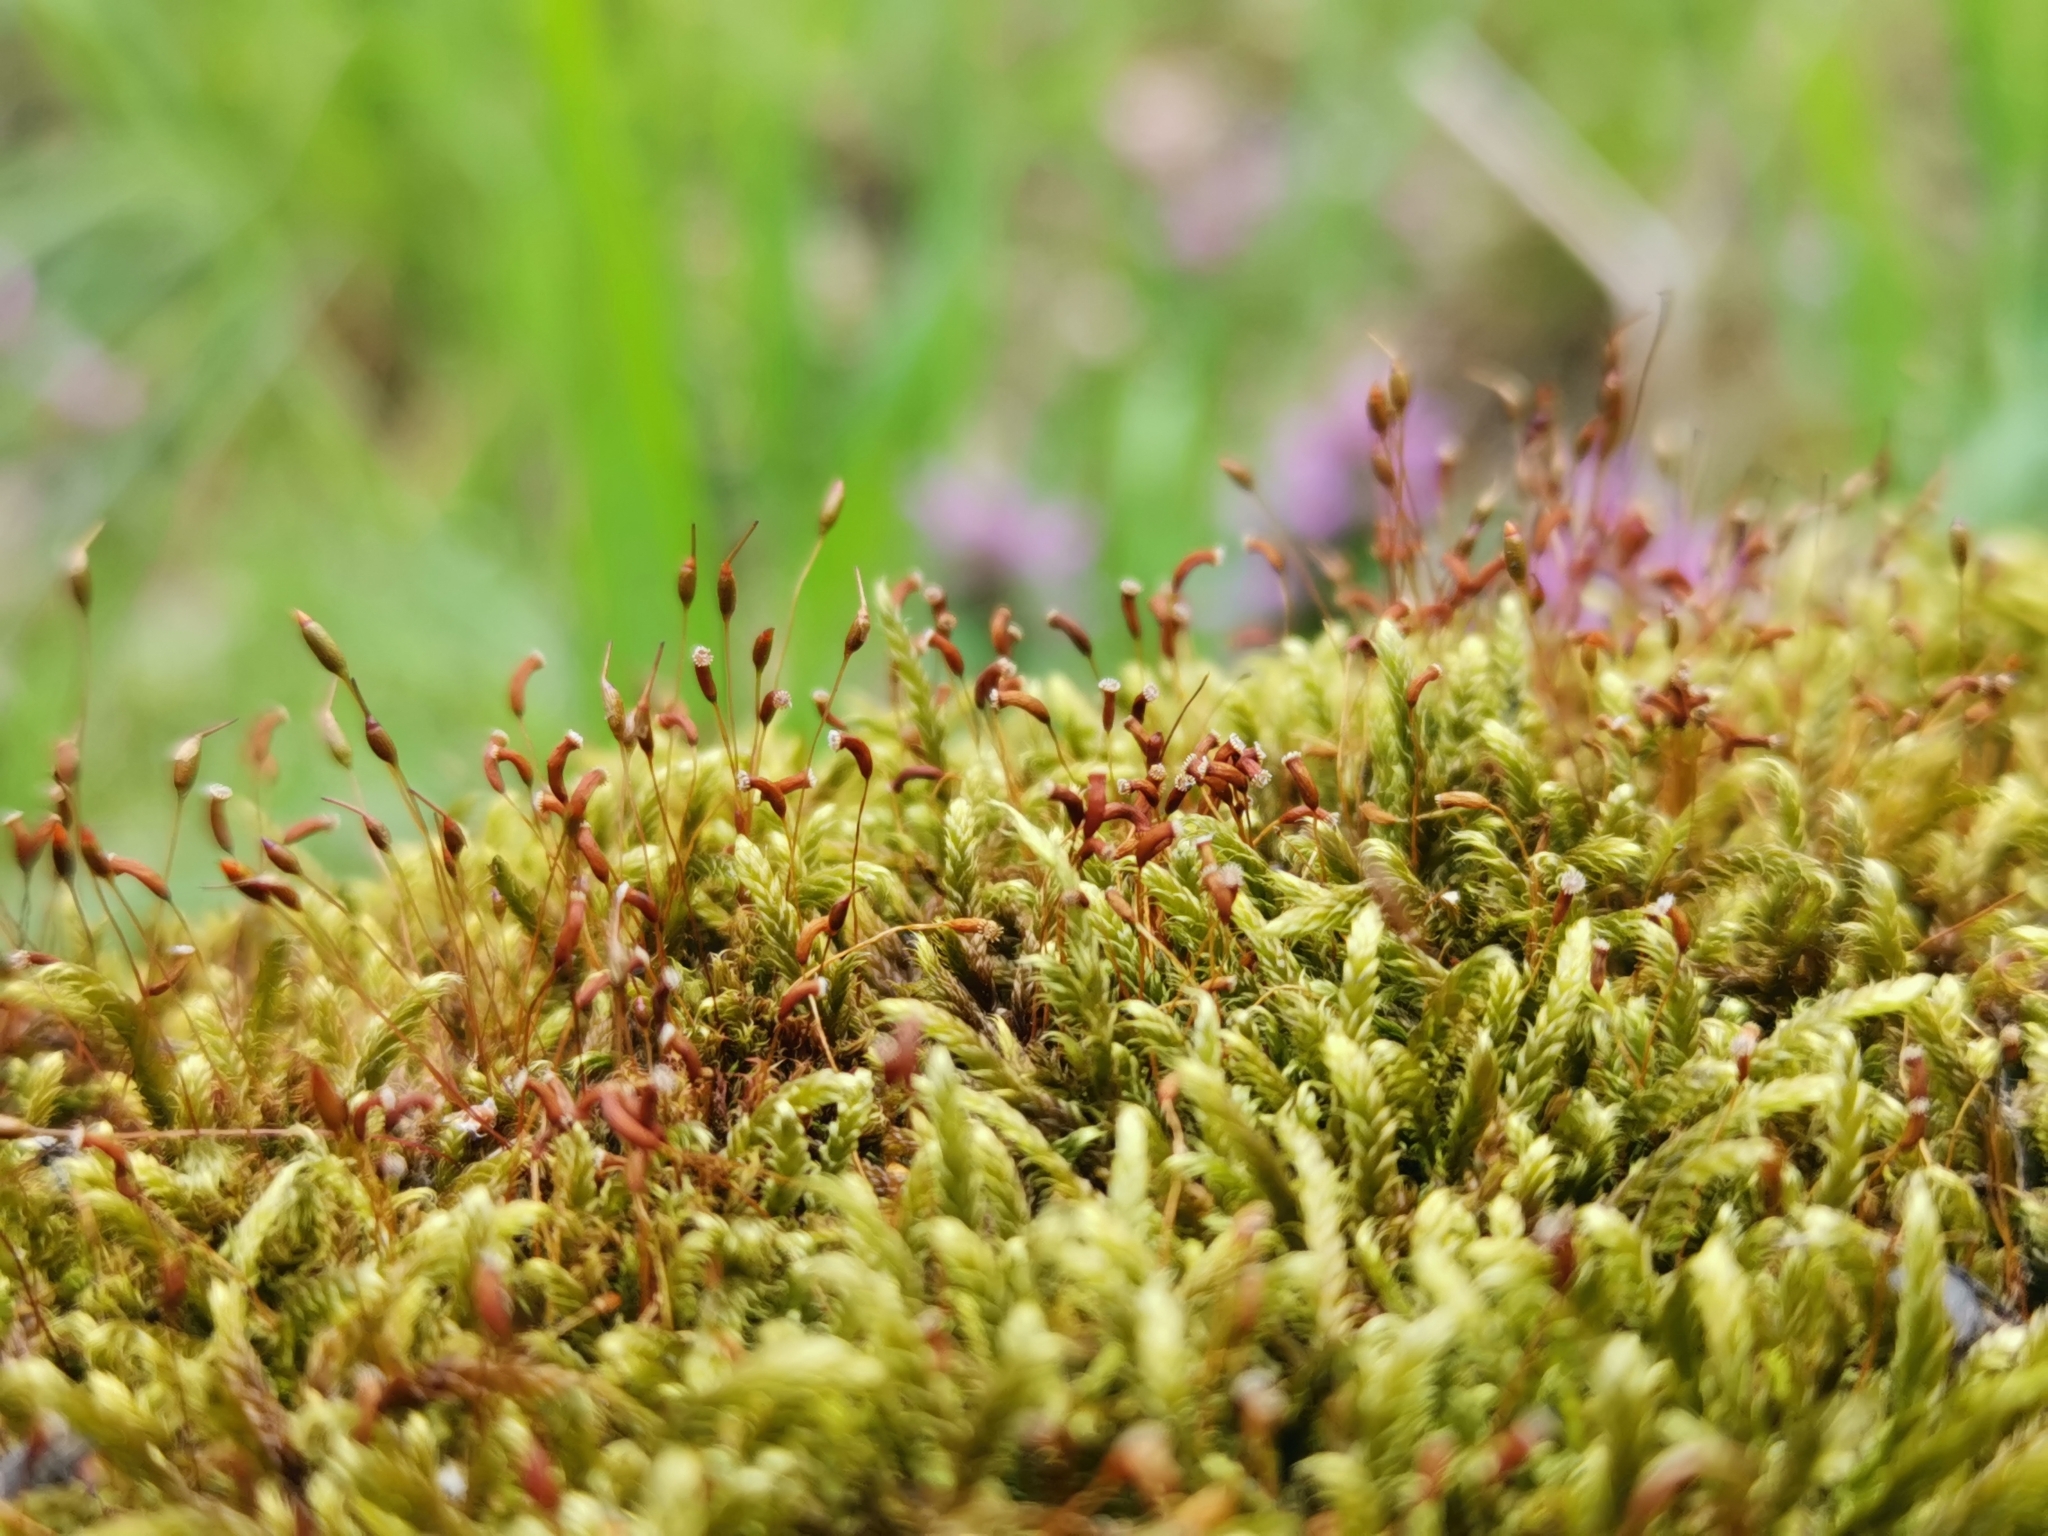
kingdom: Plantae
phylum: Bryophyta
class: Bryopsida
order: Hypnales
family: Hypnaceae
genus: Hypnum
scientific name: Hypnum cupressiforme
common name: Cypress-leaved plait-moss
